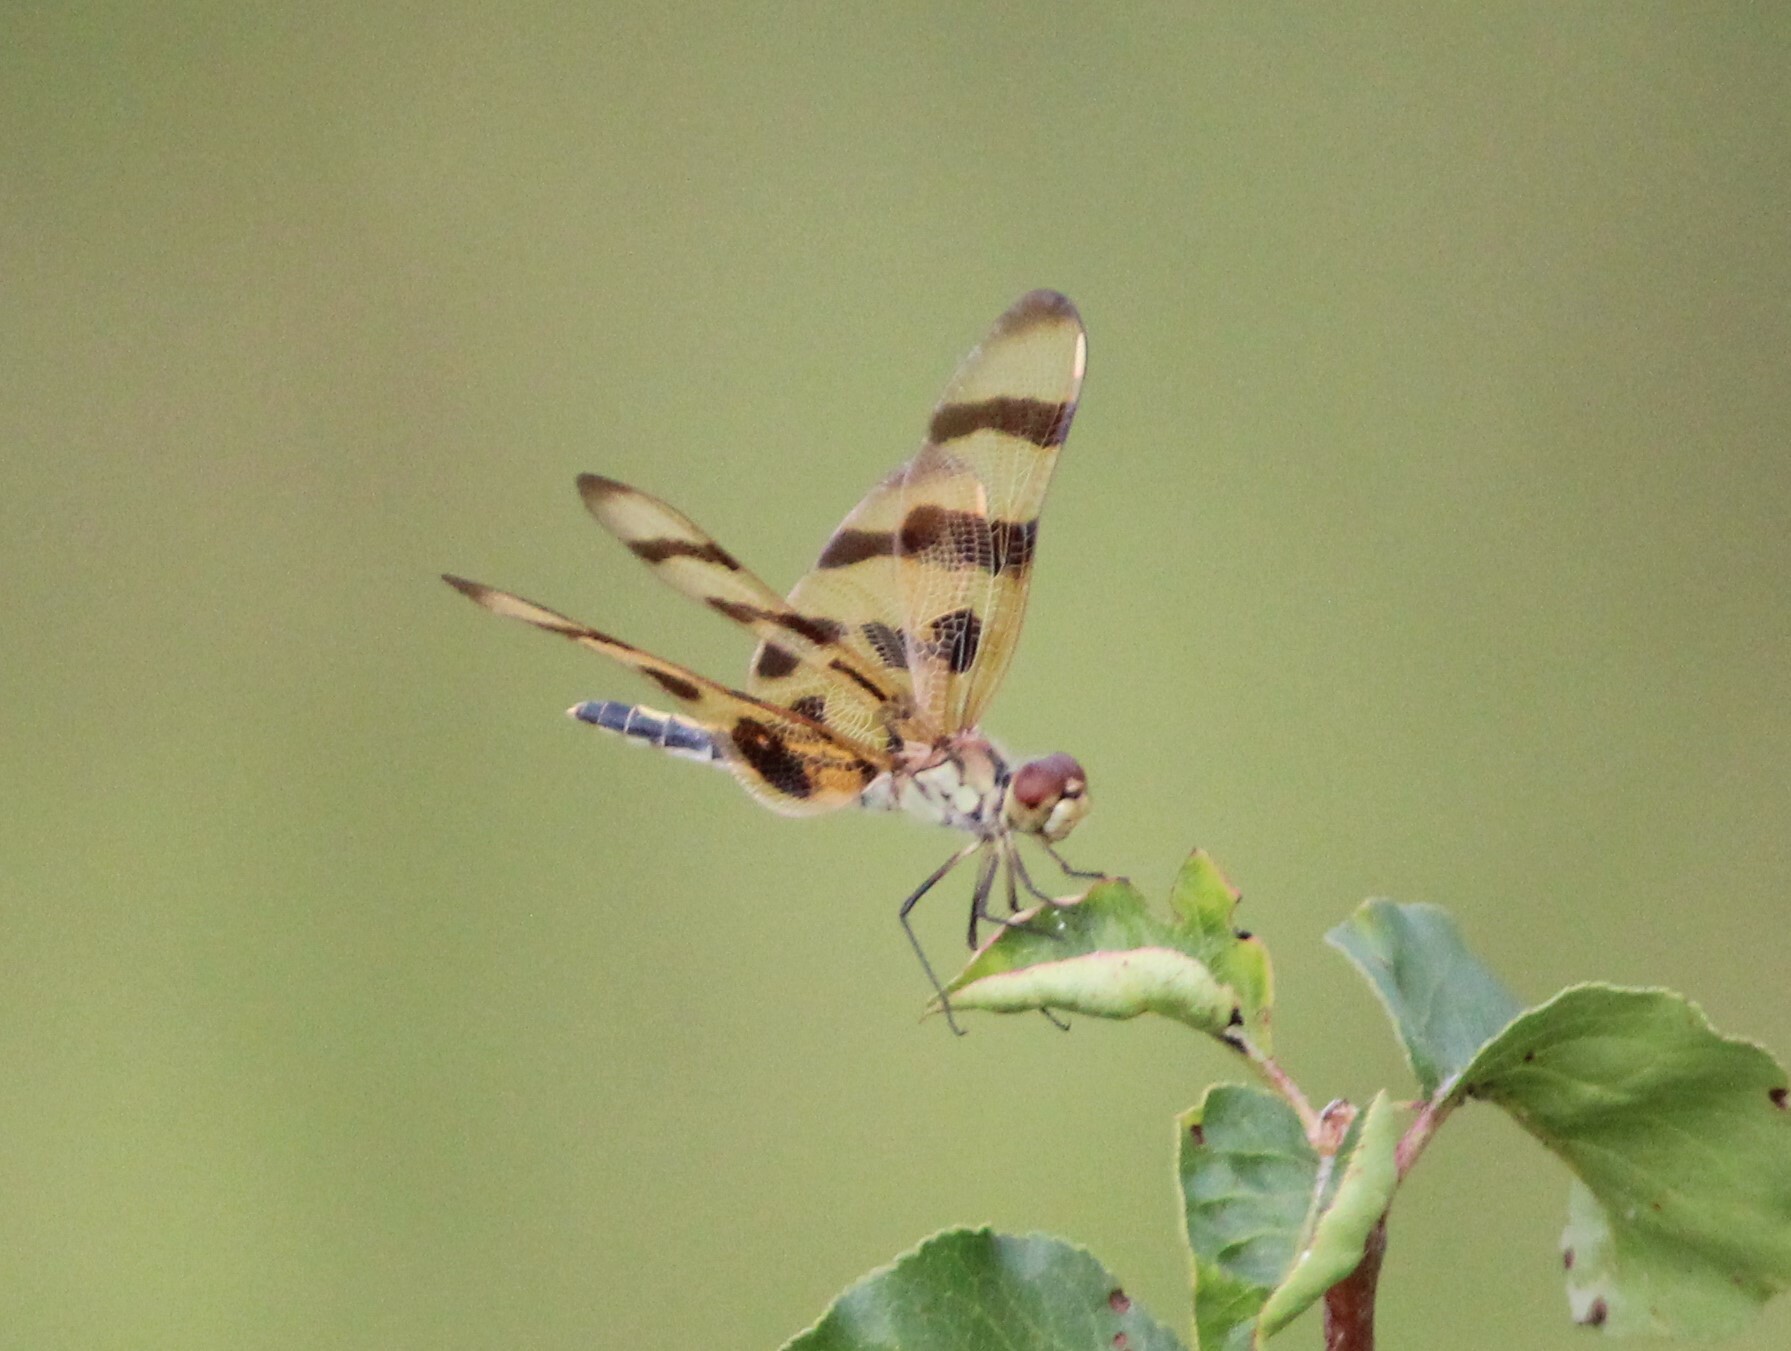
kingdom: Animalia
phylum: Arthropoda
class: Insecta
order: Odonata
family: Libellulidae
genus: Celithemis
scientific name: Celithemis eponina
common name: Halloween pennant
